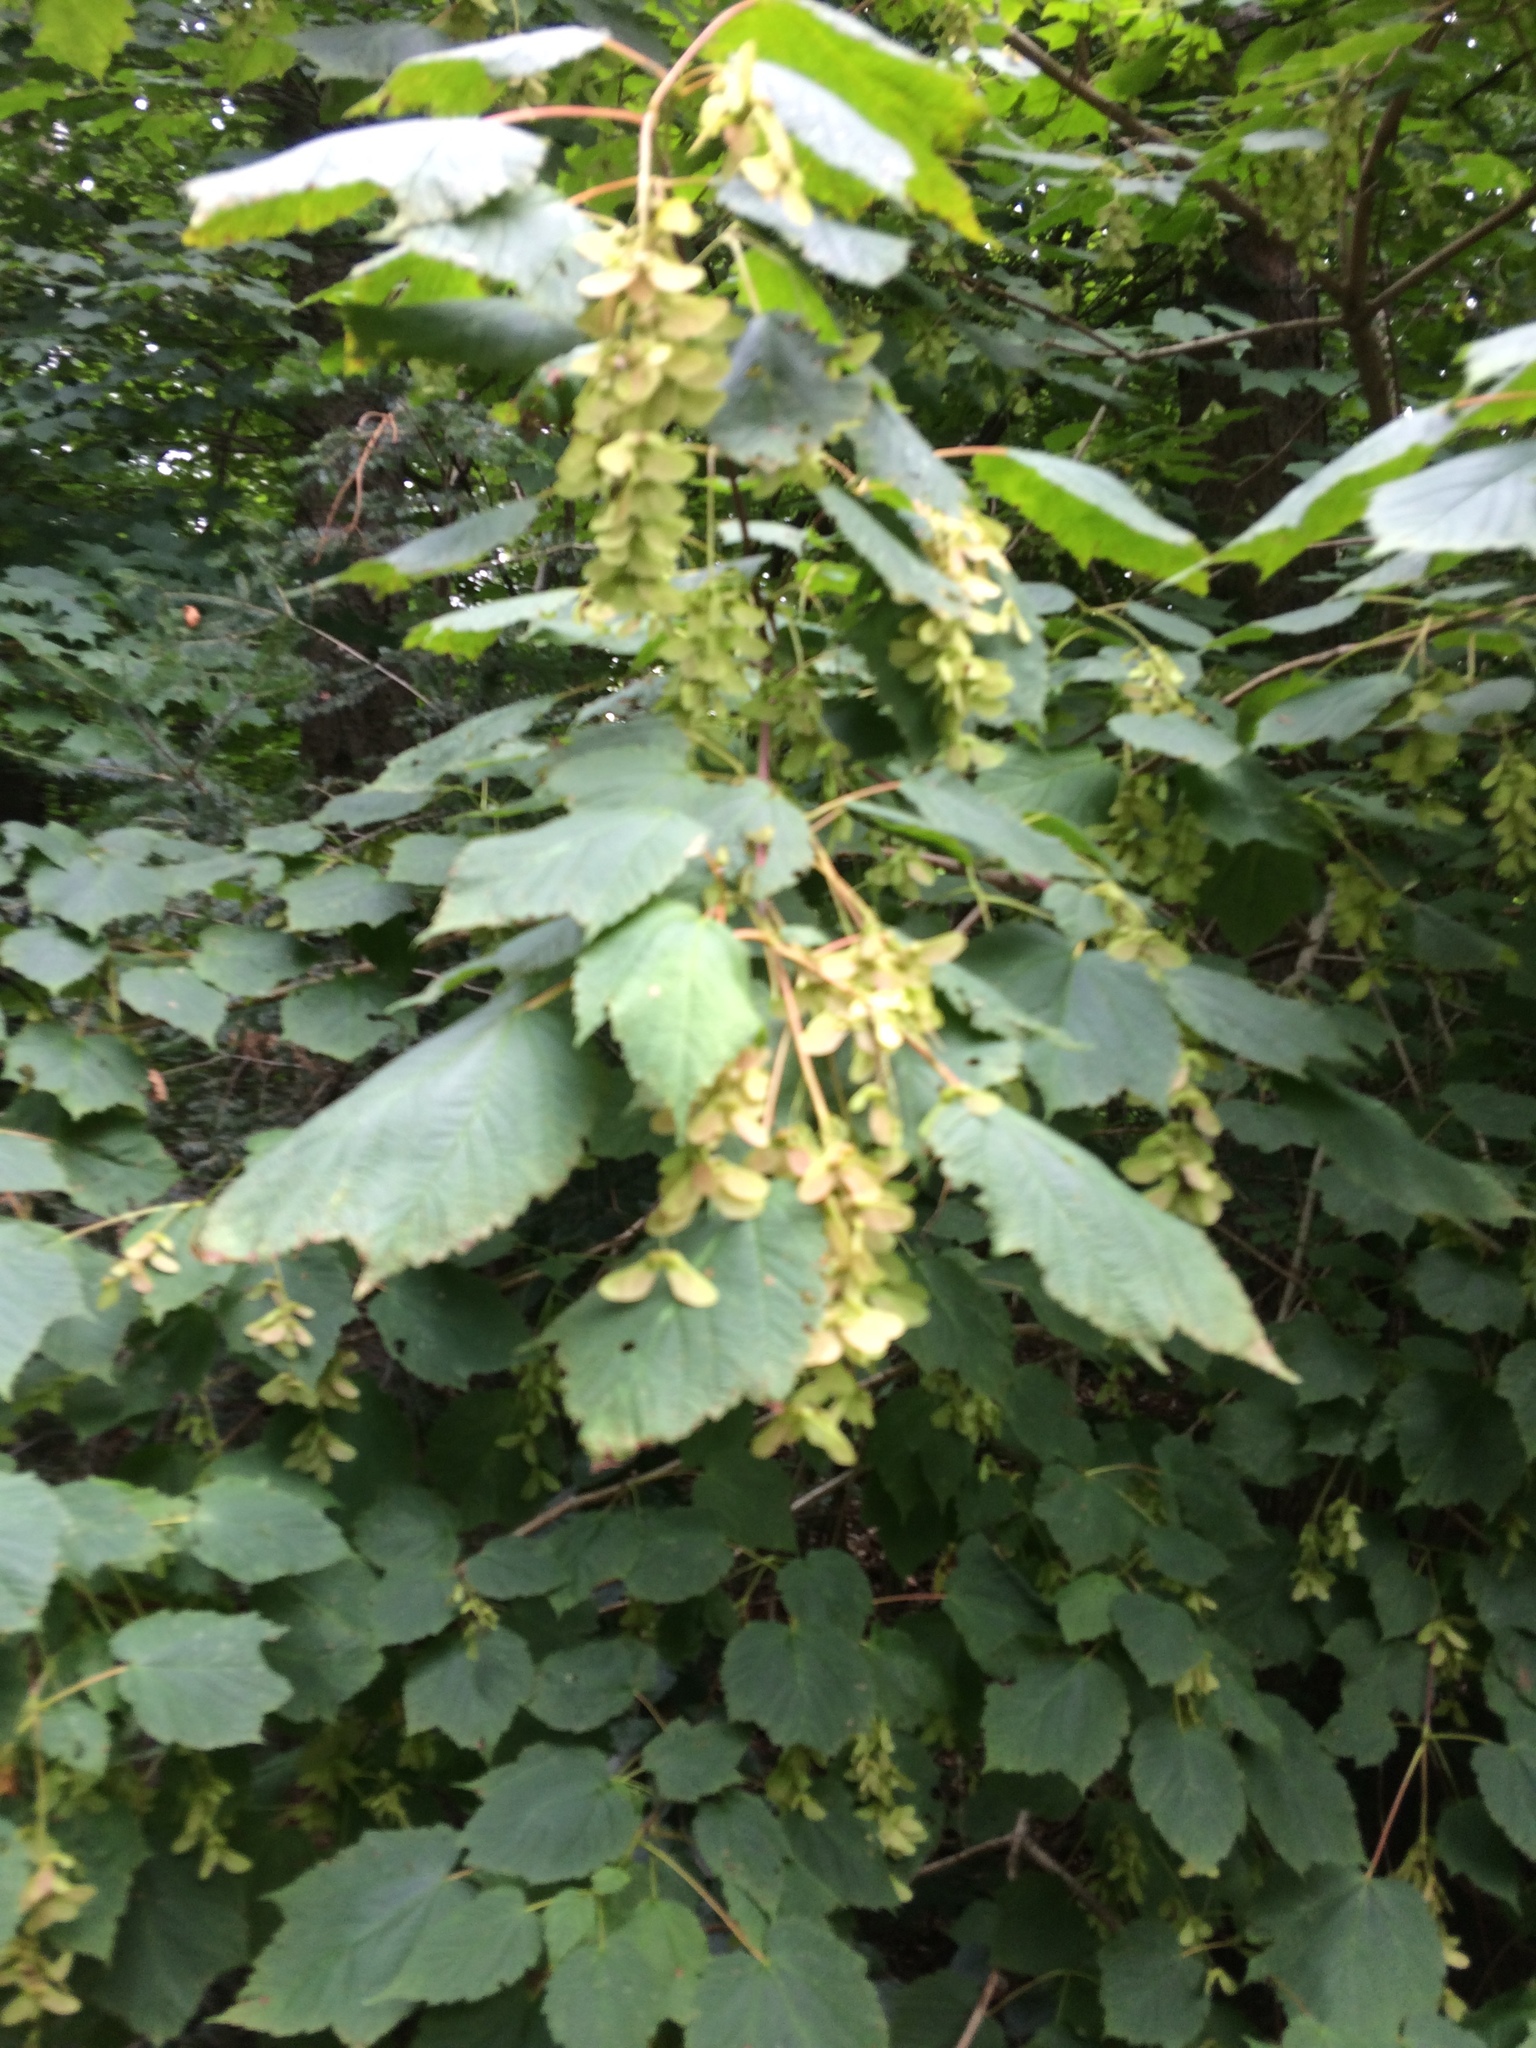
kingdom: Plantae
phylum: Tracheophyta
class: Magnoliopsida
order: Sapindales
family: Sapindaceae
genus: Acer
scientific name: Acer spicatum
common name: Mountain maple
